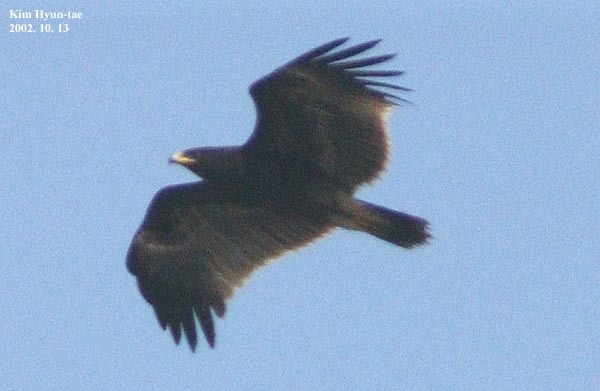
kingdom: Animalia
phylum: Chordata
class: Aves
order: Accipitriformes
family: Accipitridae
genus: Aquila
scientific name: Aquila clanga
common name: Greater spotted eagle
